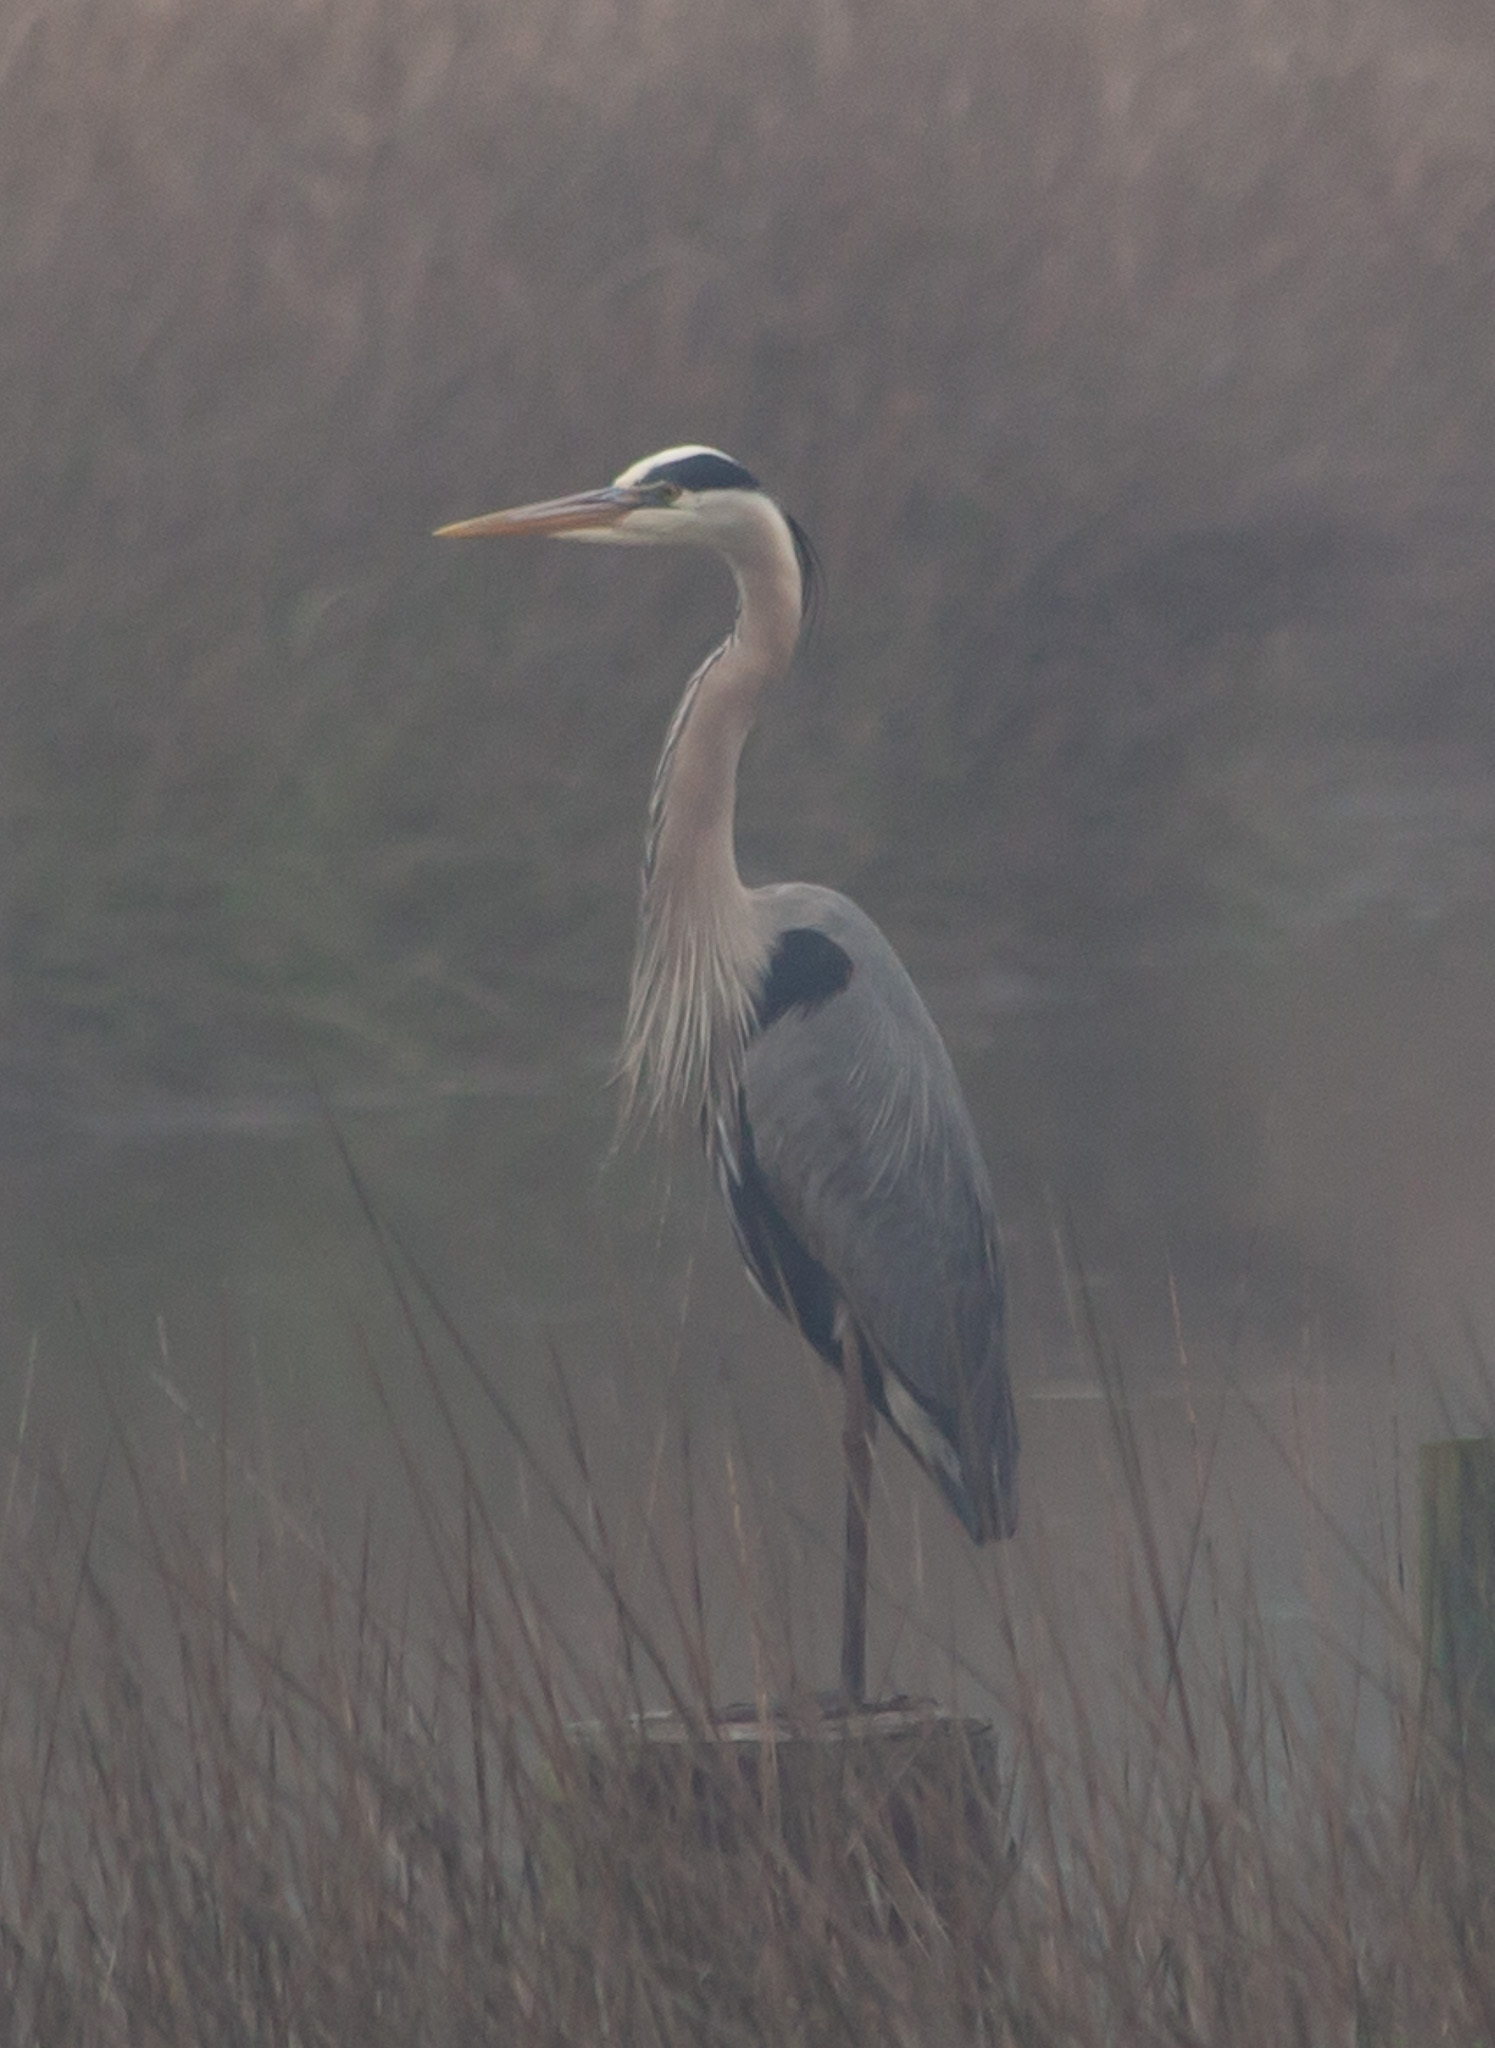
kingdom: Animalia
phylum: Chordata
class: Aves
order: Pelecaniformes
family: Ardeidae
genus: Ardea
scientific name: Ardea herodias
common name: Great blue heron
